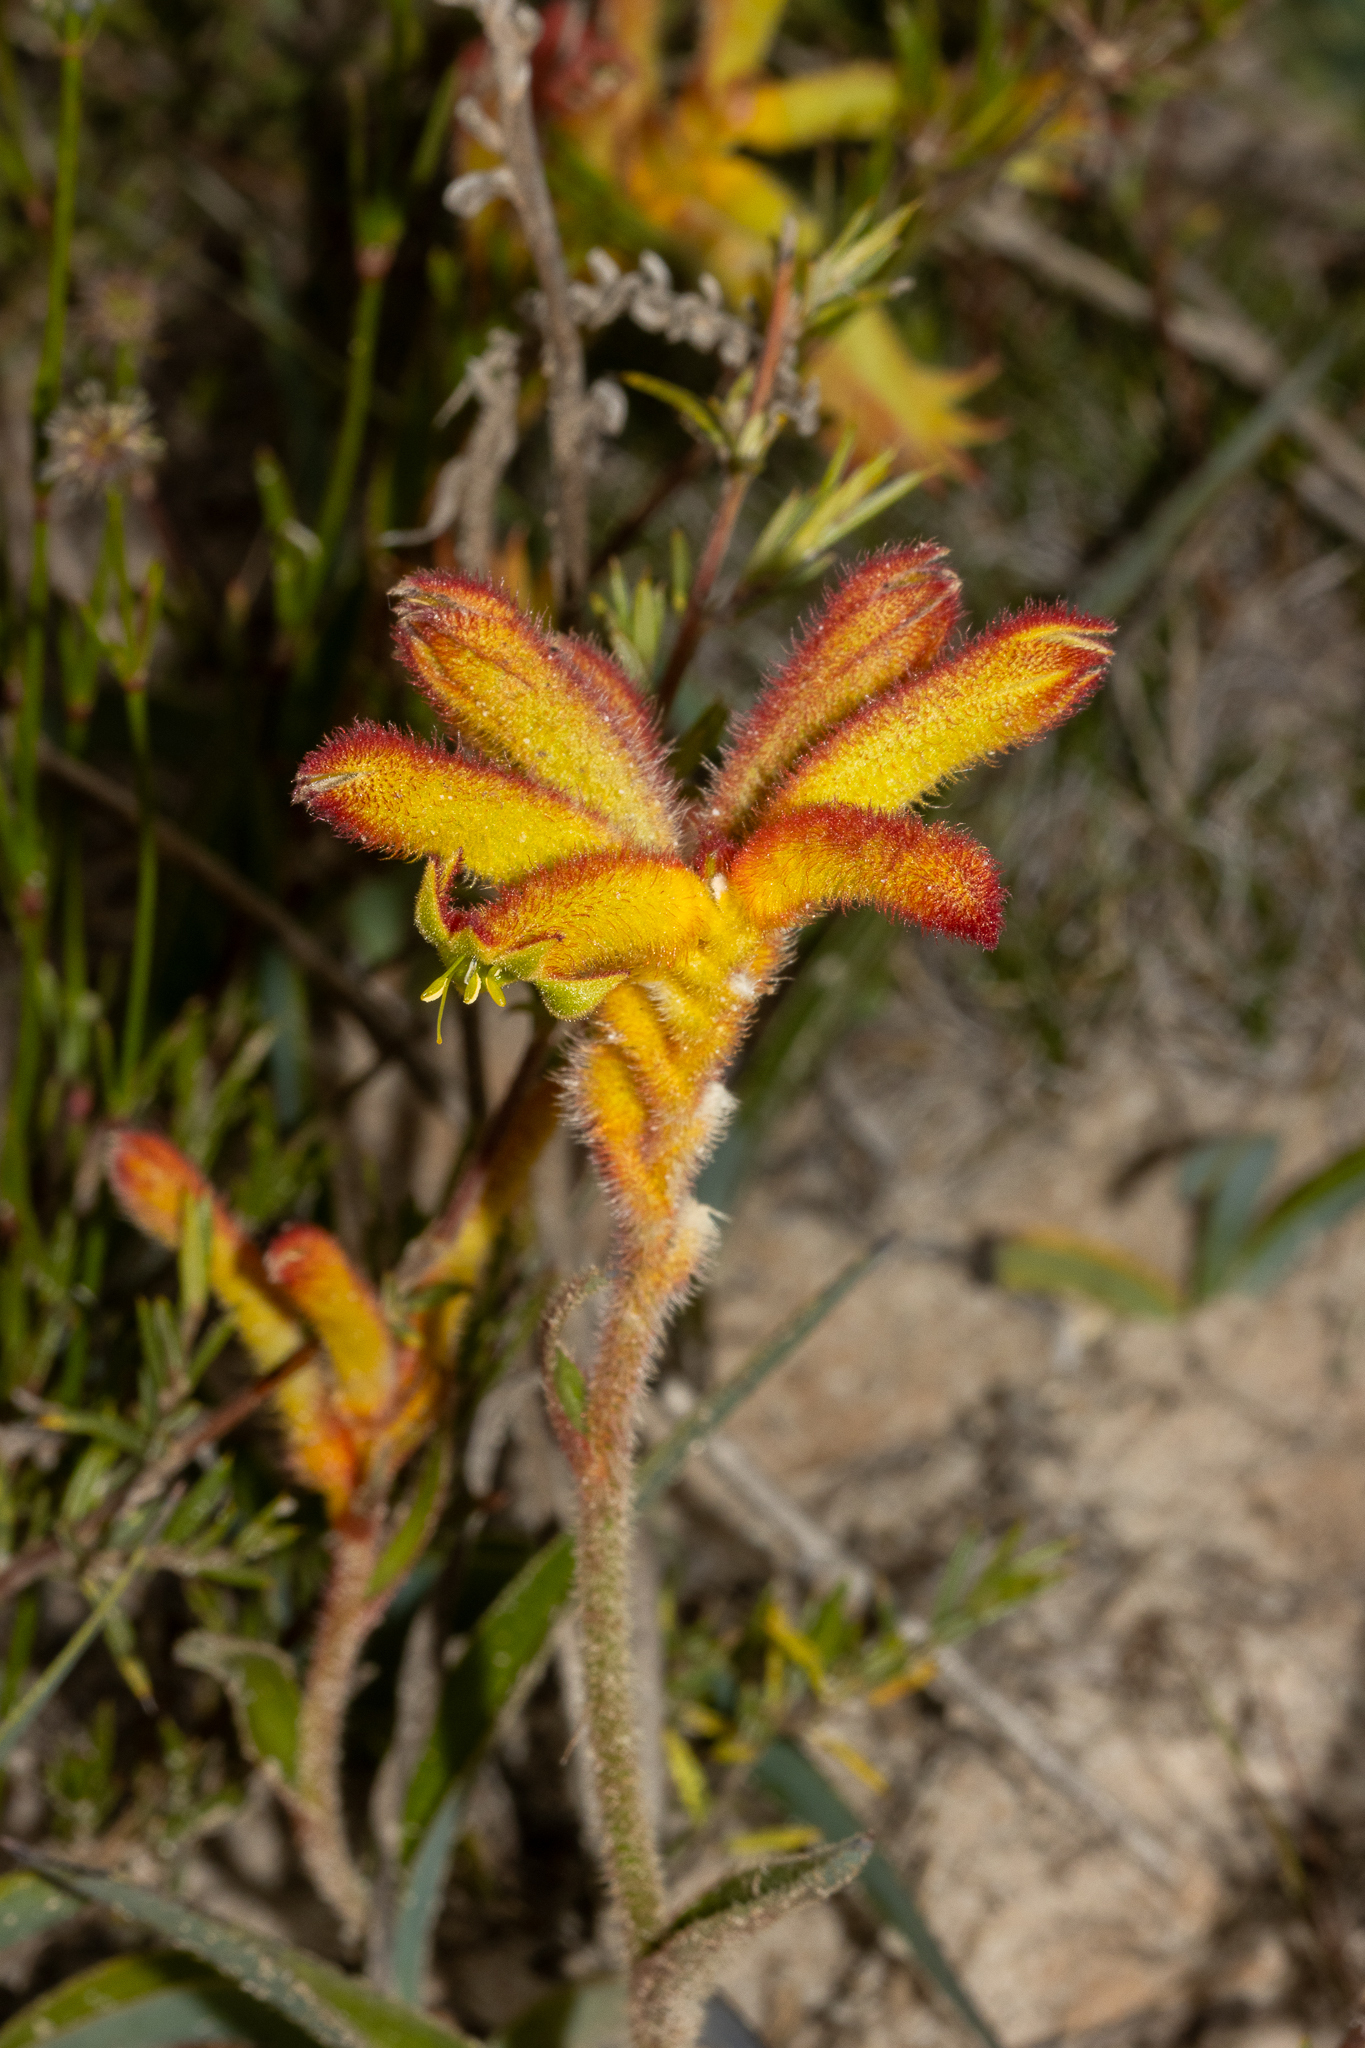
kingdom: Plantae
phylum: Tracheophyta
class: Liliopsida
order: Commelinales
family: Haemodoraceae
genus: Anigozanthos
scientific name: Anigozanthos humilis
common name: Cat's-paw
